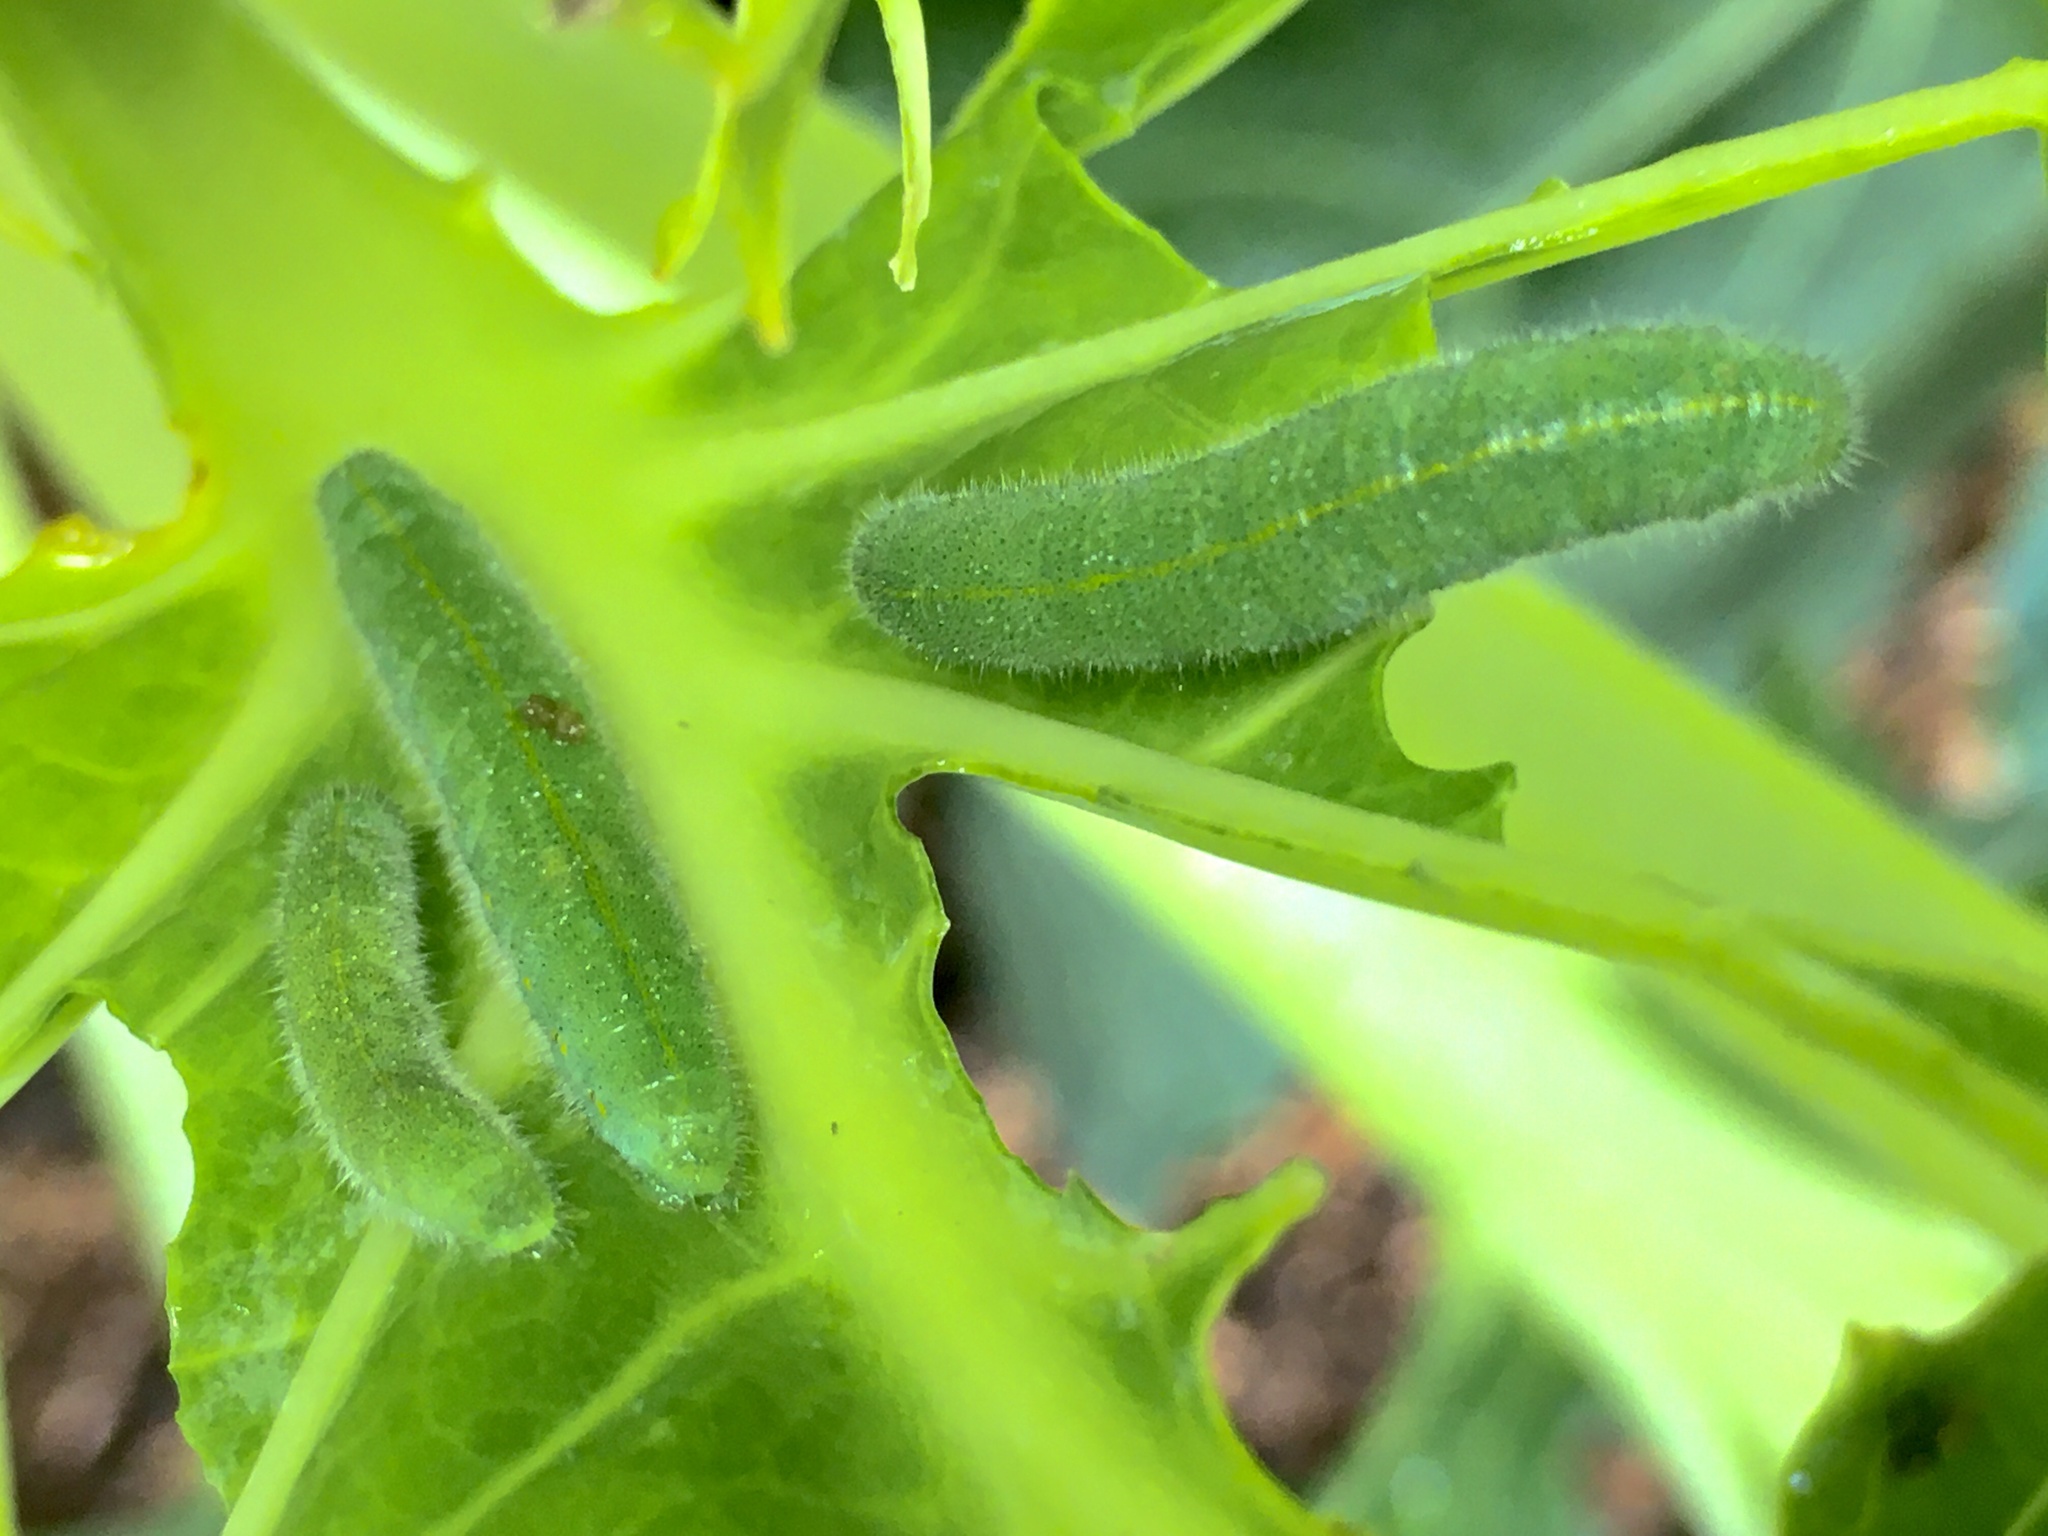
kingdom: Animalia
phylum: Arthropoda
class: Insecta
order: Lepidoptera
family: Pieridae
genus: Pieris
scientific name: Pieris rapae
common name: Small white
